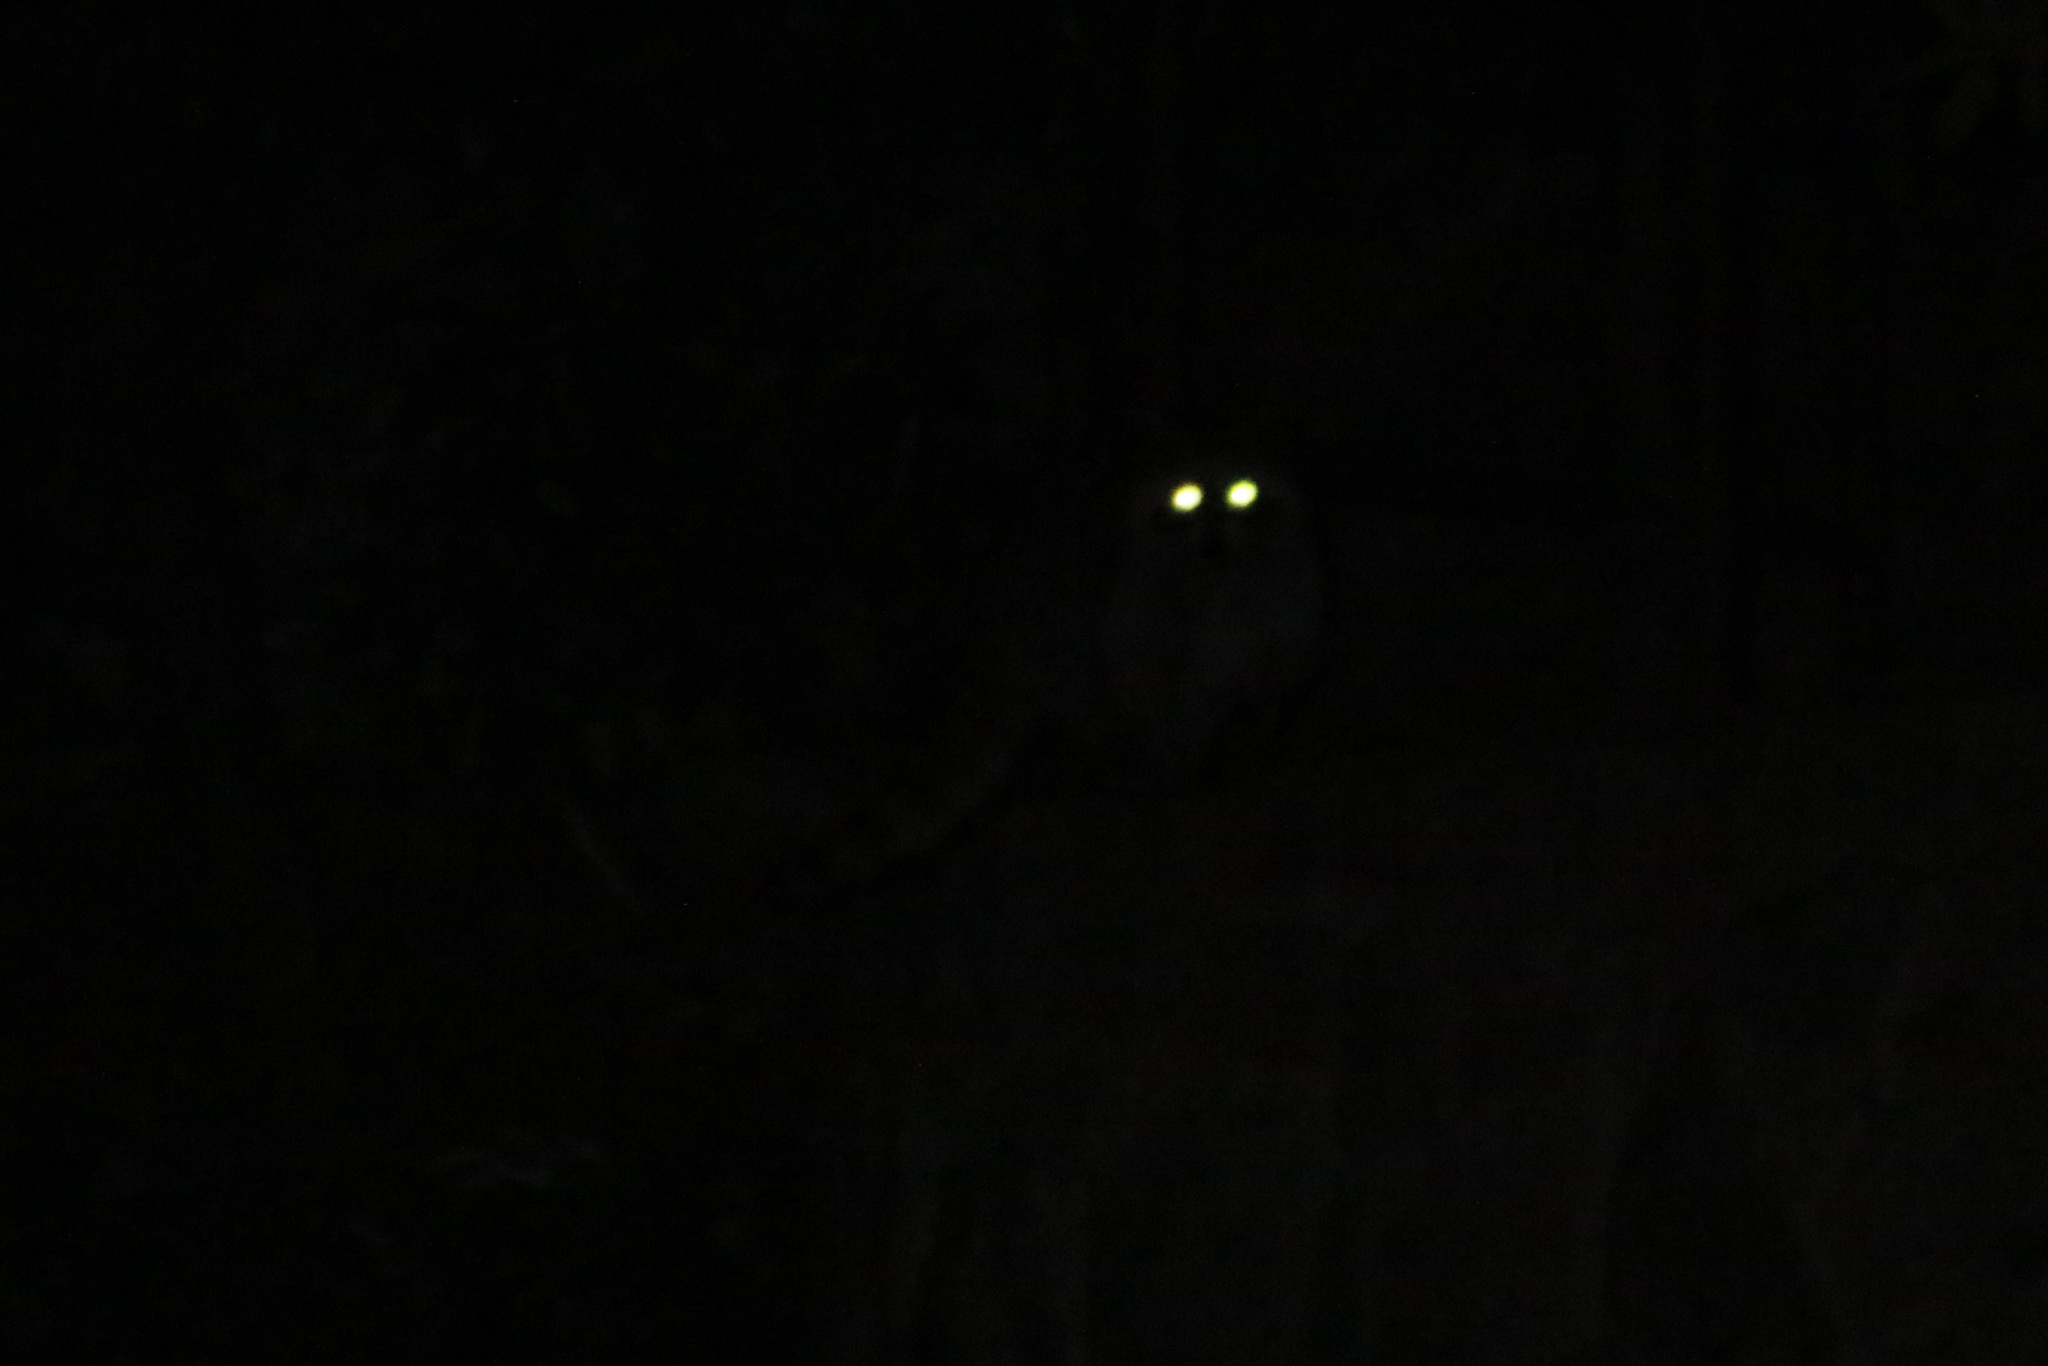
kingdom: Animalia
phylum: Chordata
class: Mammalia
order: Carnivora
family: Procyonidae
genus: Procyon
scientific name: Procyon lotor
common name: Raccoon
